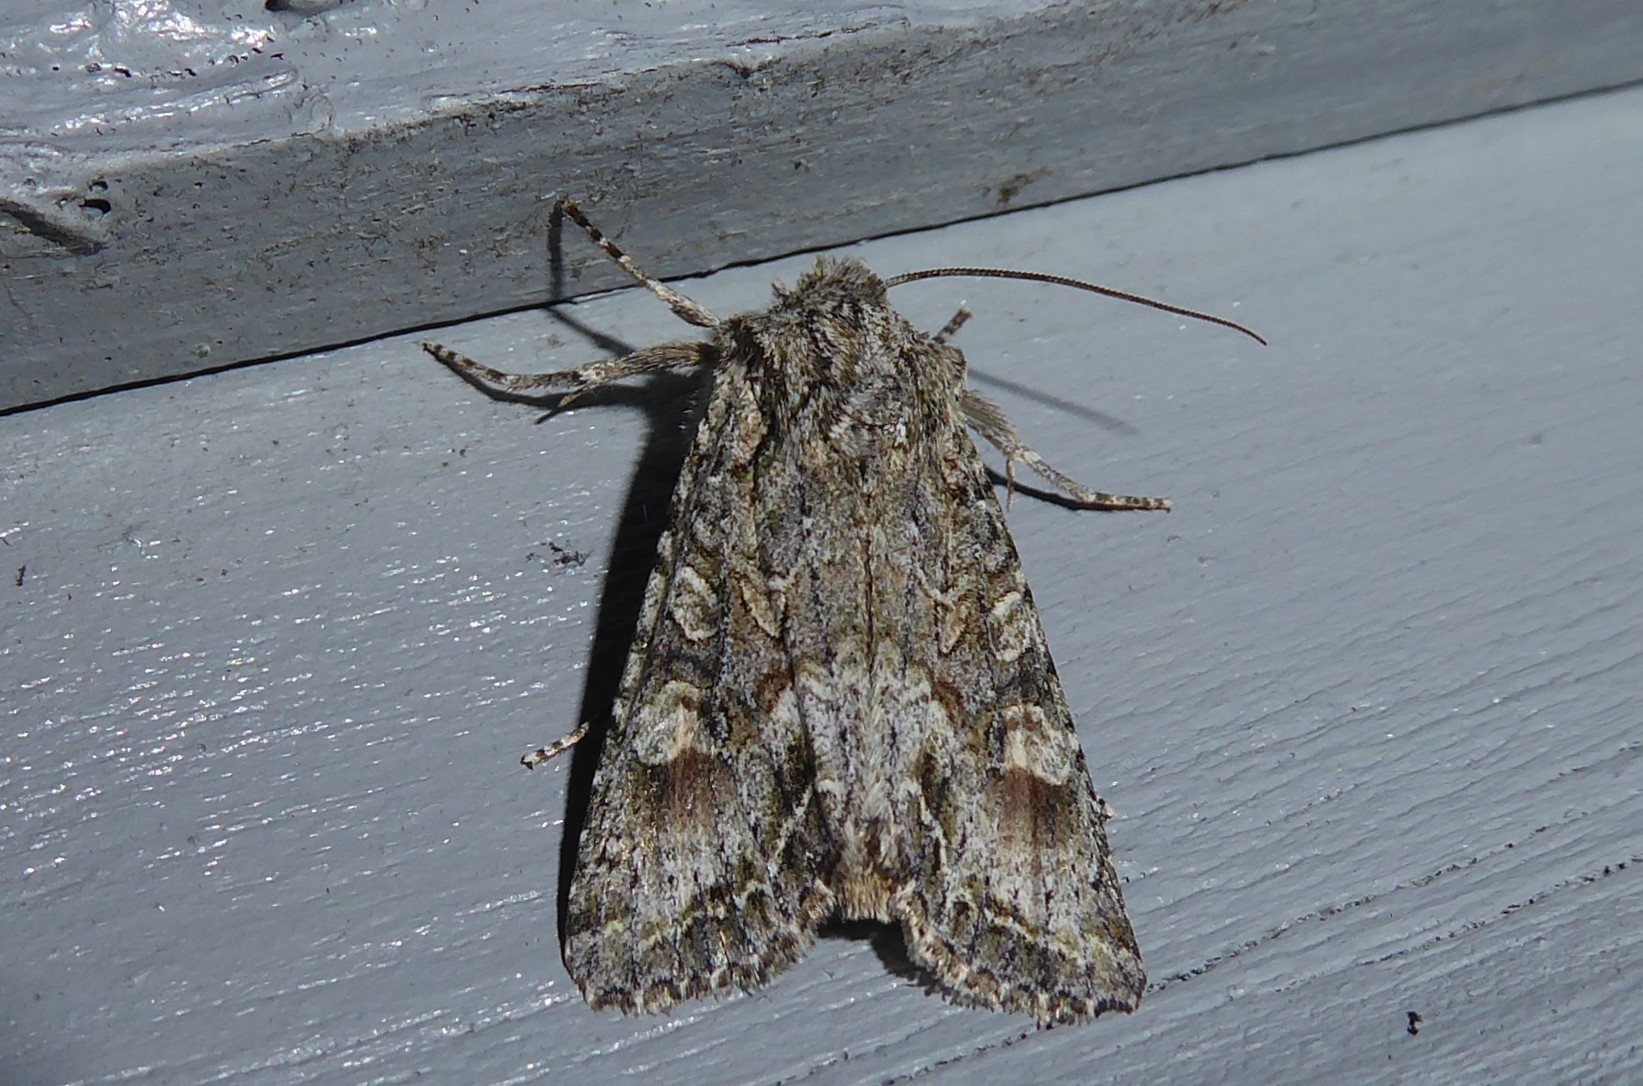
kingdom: Animalia
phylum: Arthropoda
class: Insecta
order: Lepidoptera
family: Noctuidae
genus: Ichneutica
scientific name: Ichneutica mutans
